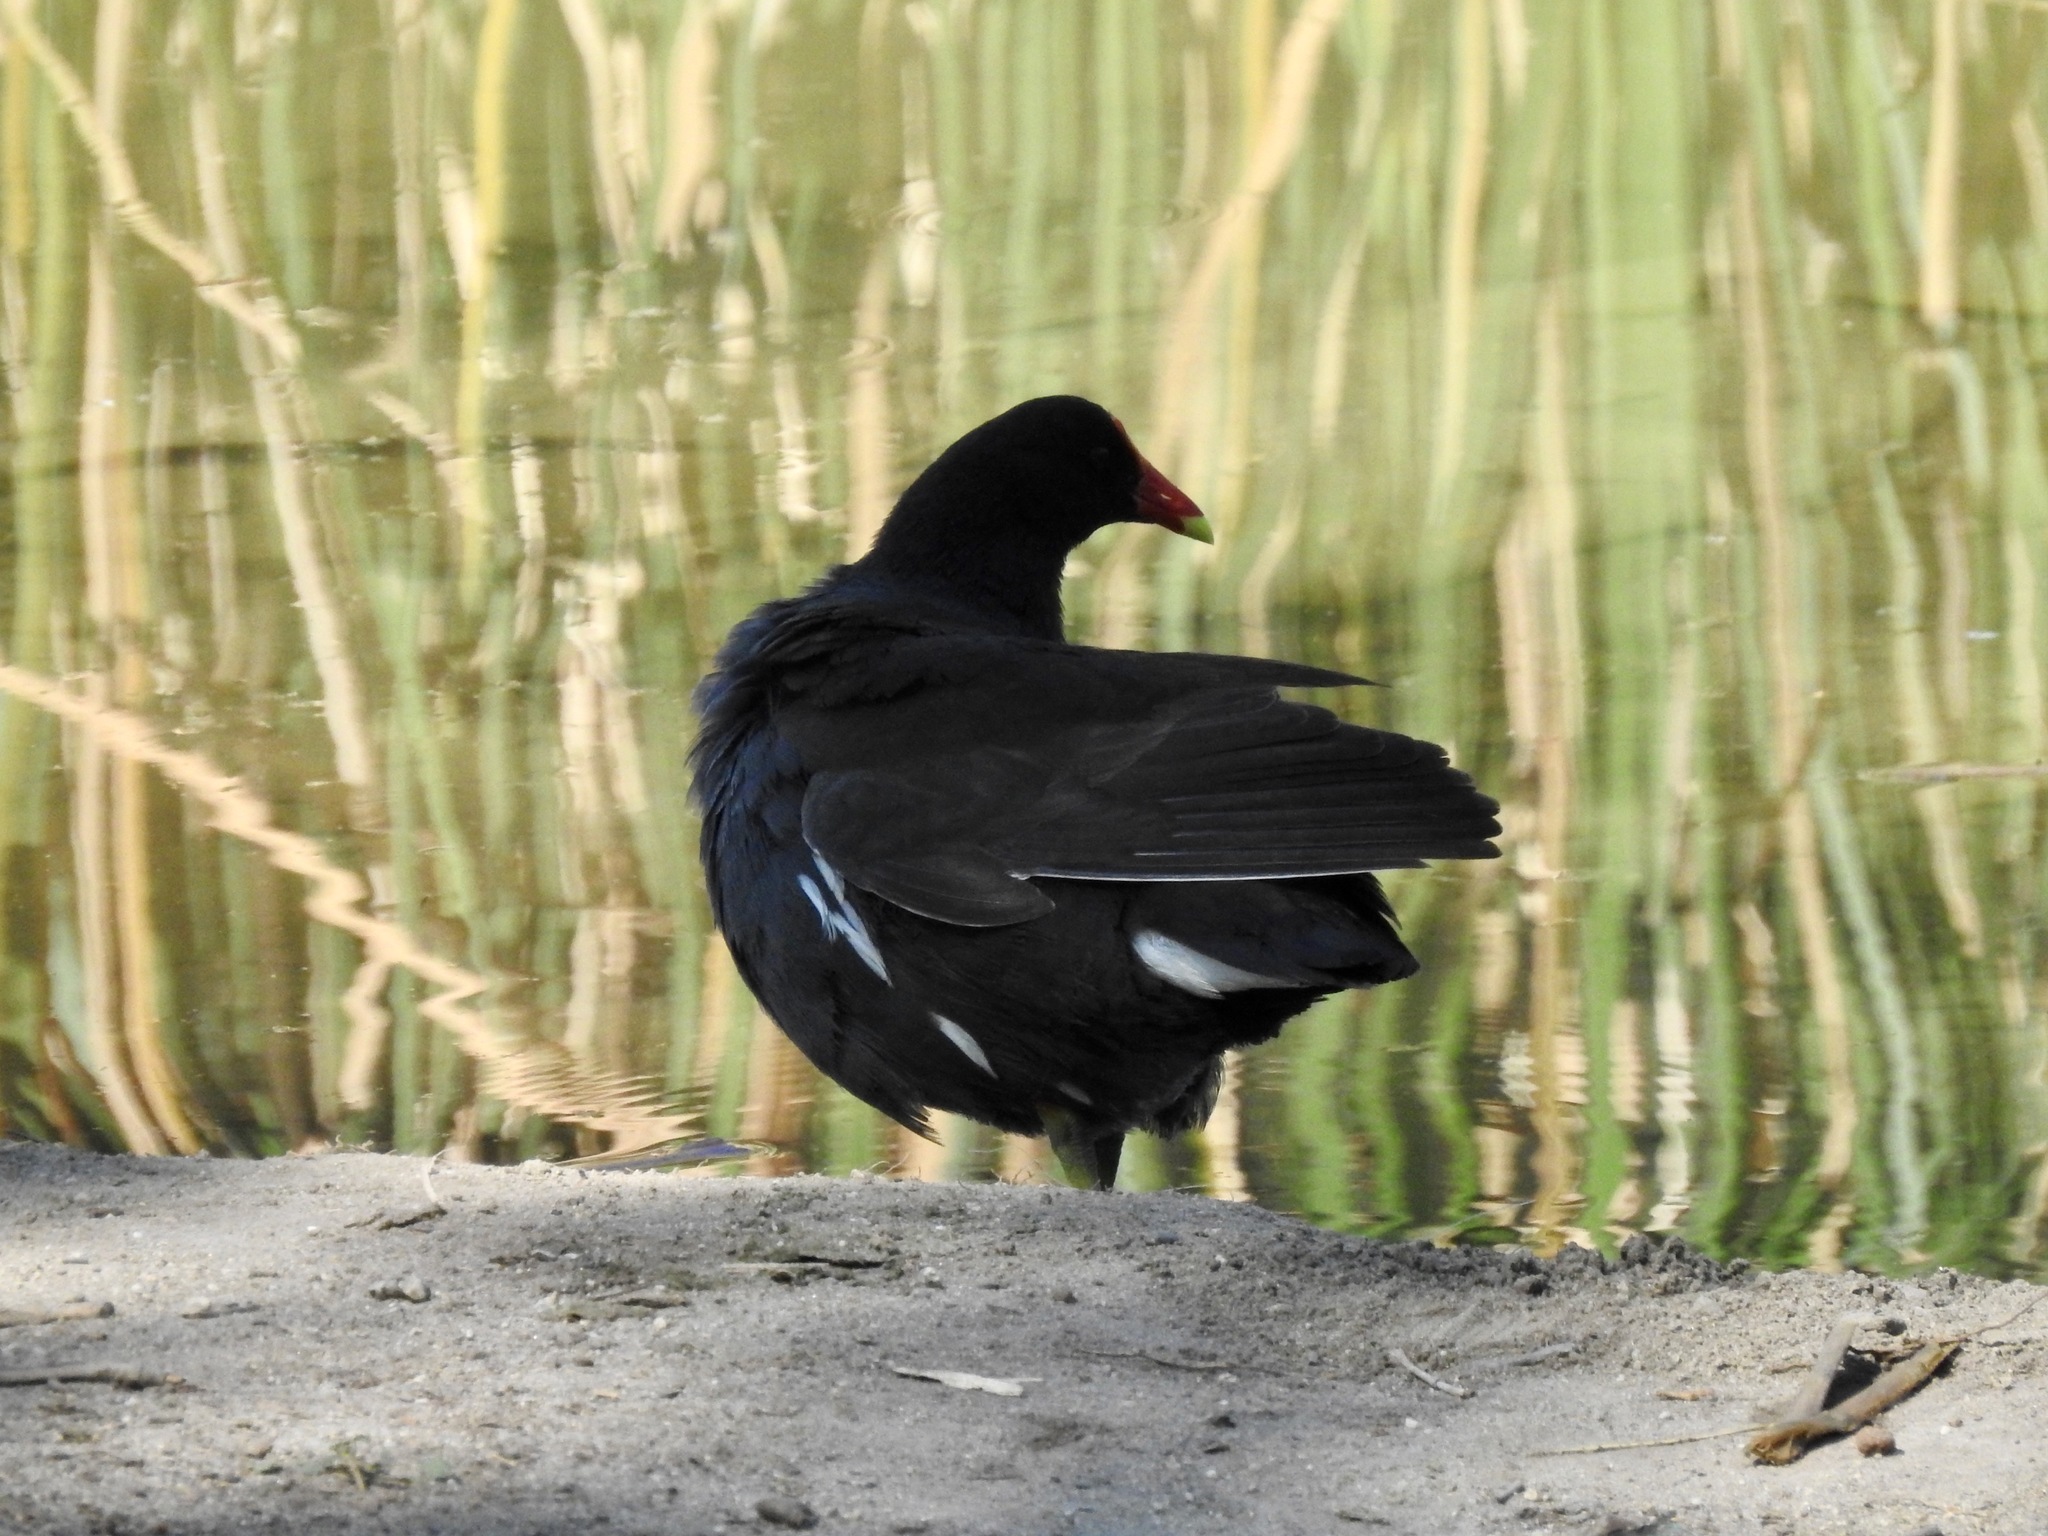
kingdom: Animalia
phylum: Chordata
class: Aves
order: Gruiformes
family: Rallidae
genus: Gallinula
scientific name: Gallinula chloropus
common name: Common moorhen
